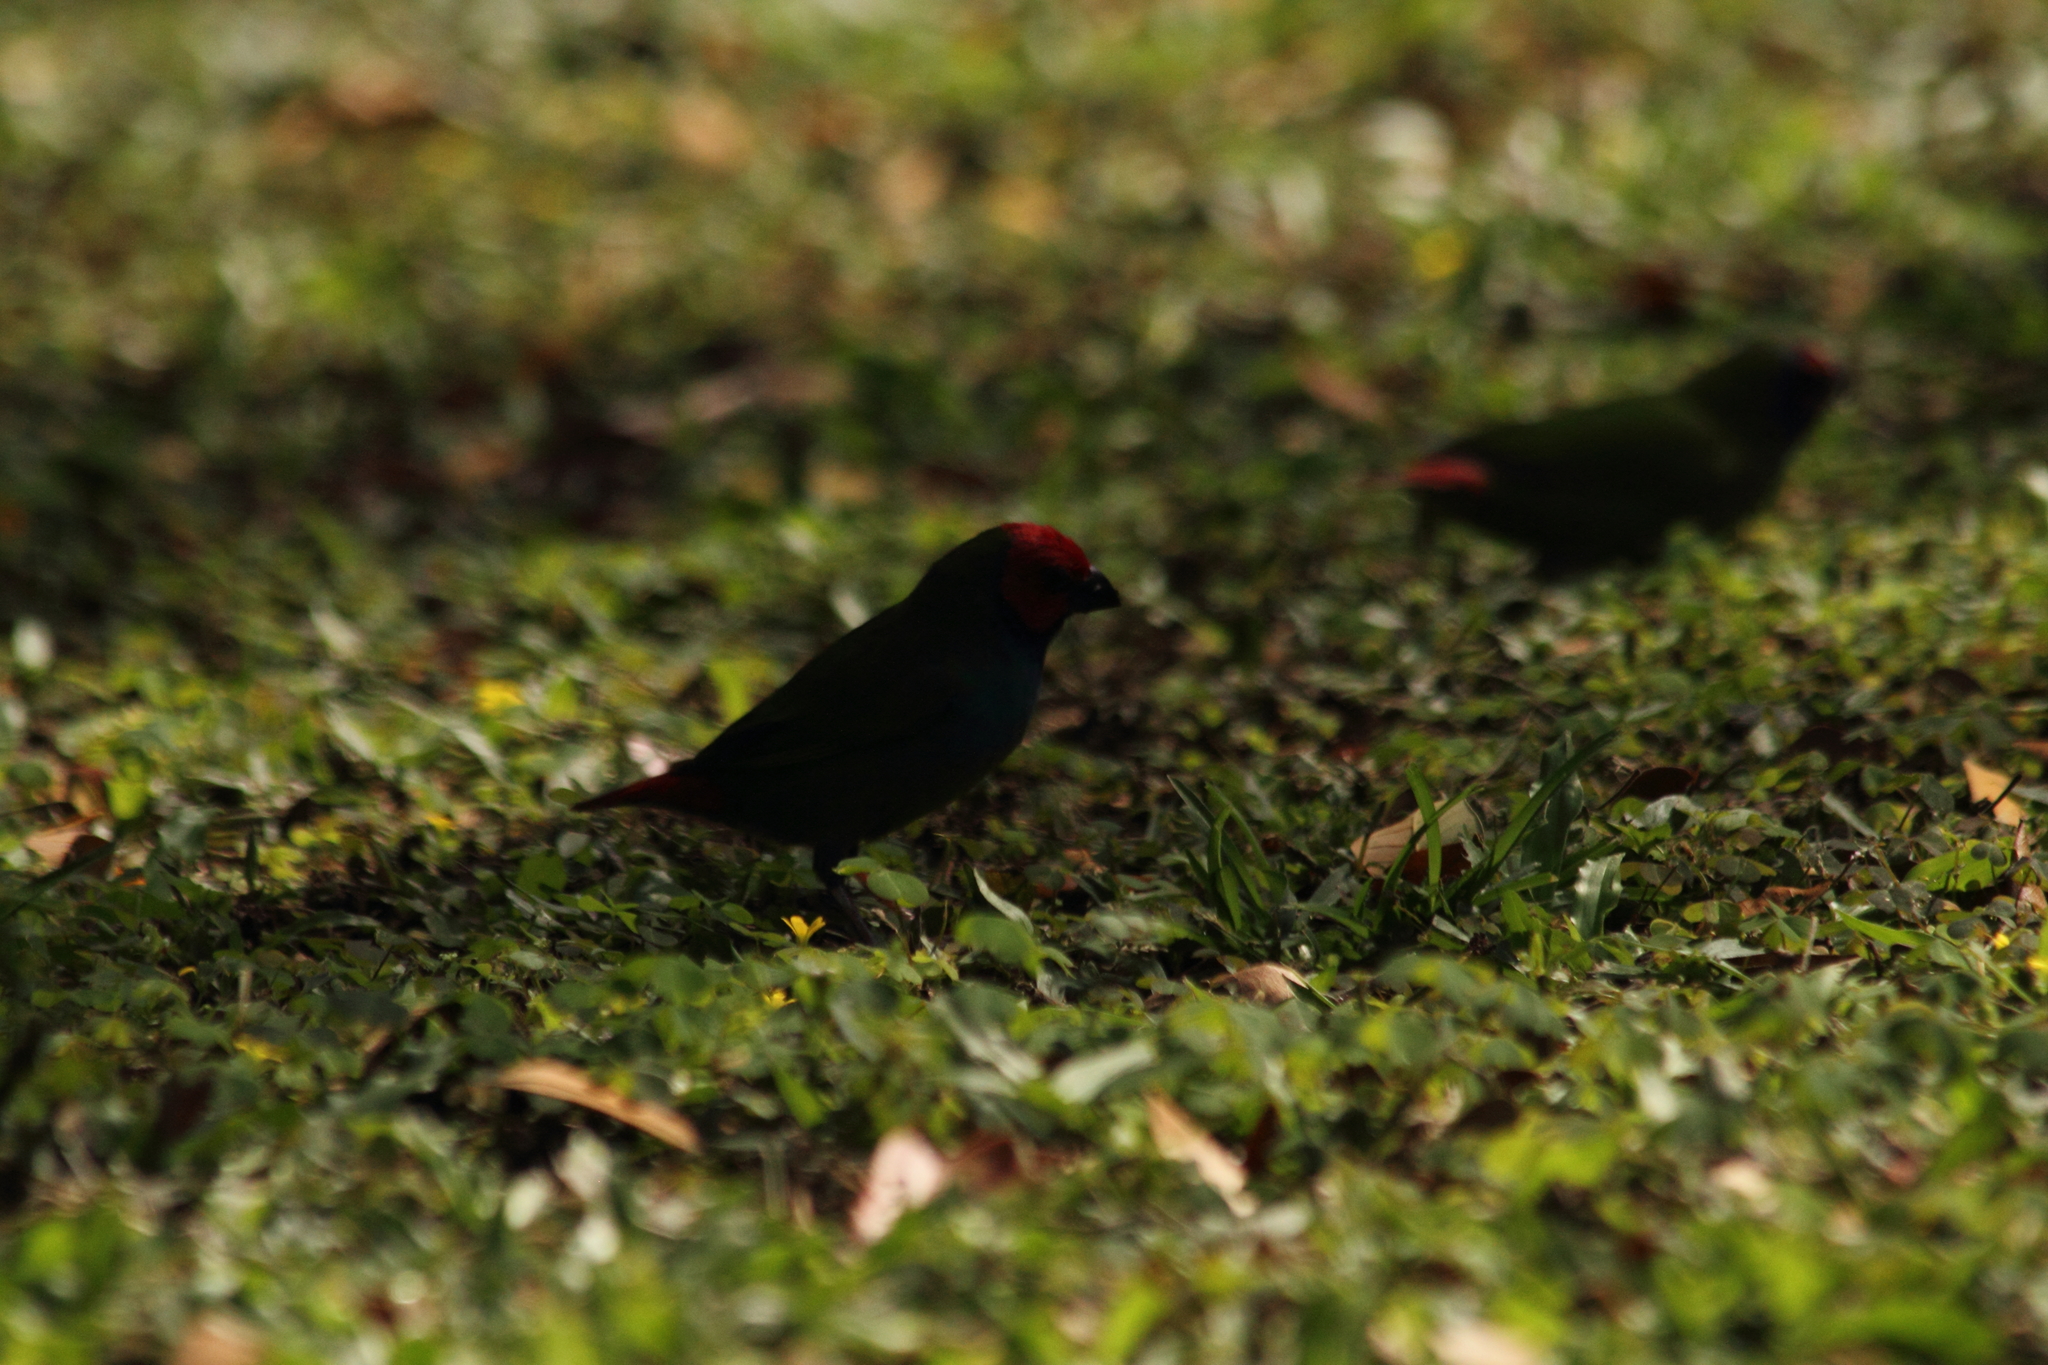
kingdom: Animalia
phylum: Chordata
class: Aves
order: Passeriformes
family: Estrildidae
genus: Erythrura
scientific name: Erythrura pealii
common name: Fiji parrotfinch
